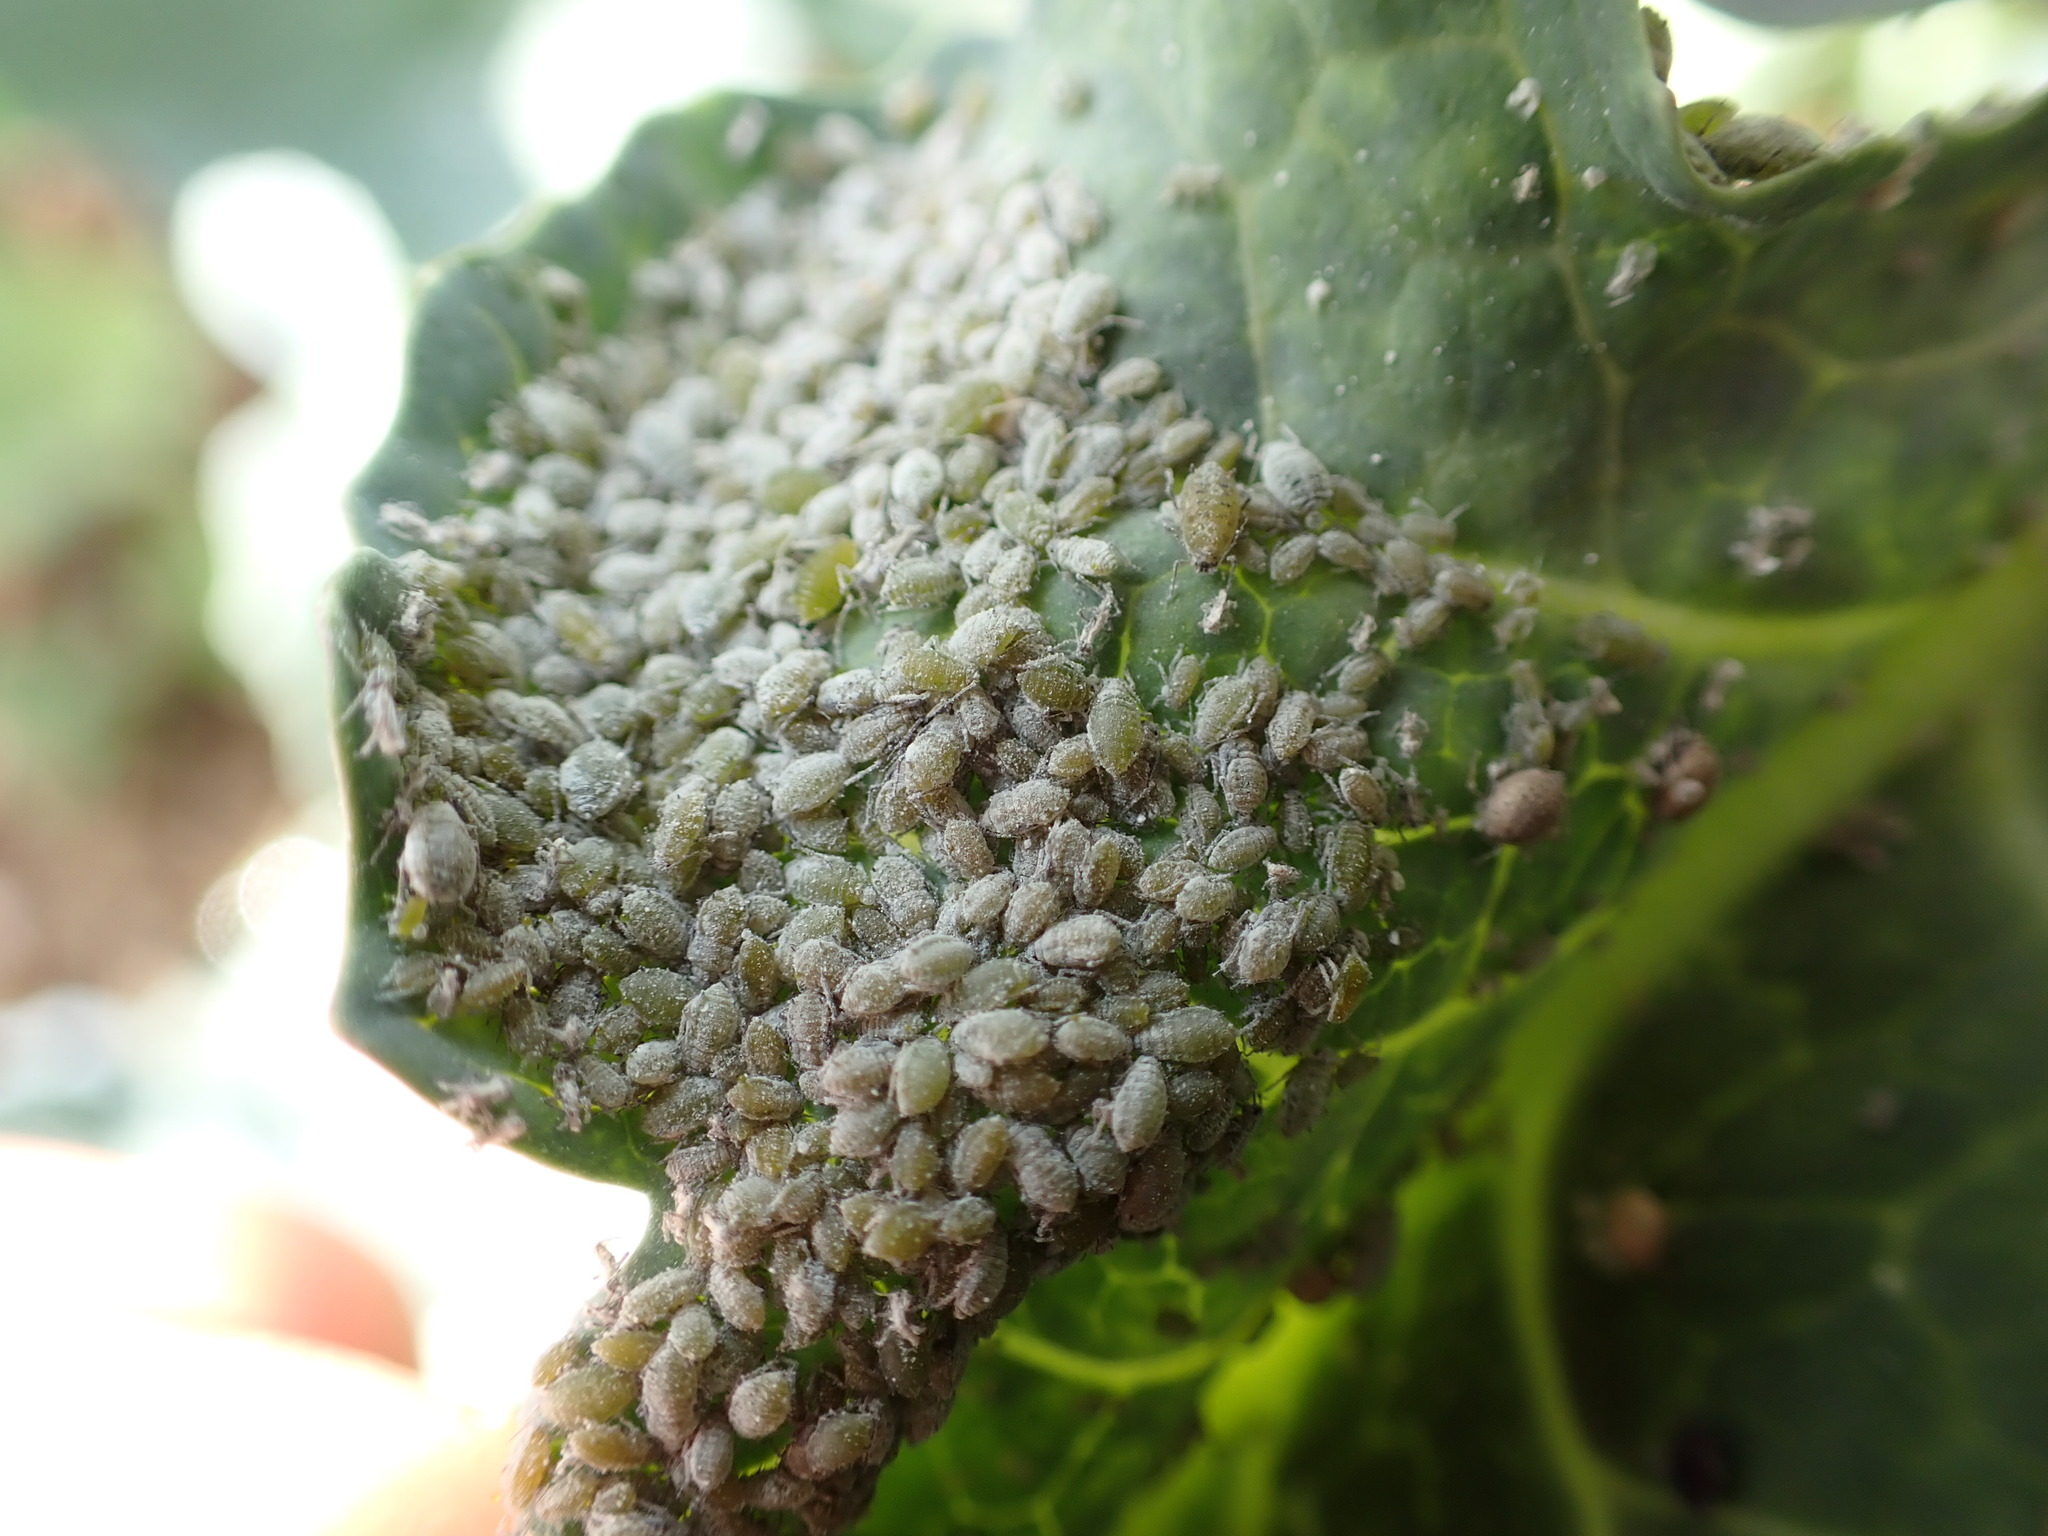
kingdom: Animalia
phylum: Arthropoda
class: Insecta
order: Hemiptera
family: Aphididae
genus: Brevicoryne
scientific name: Brevicoryne brassicae
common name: Cabbage aphid
